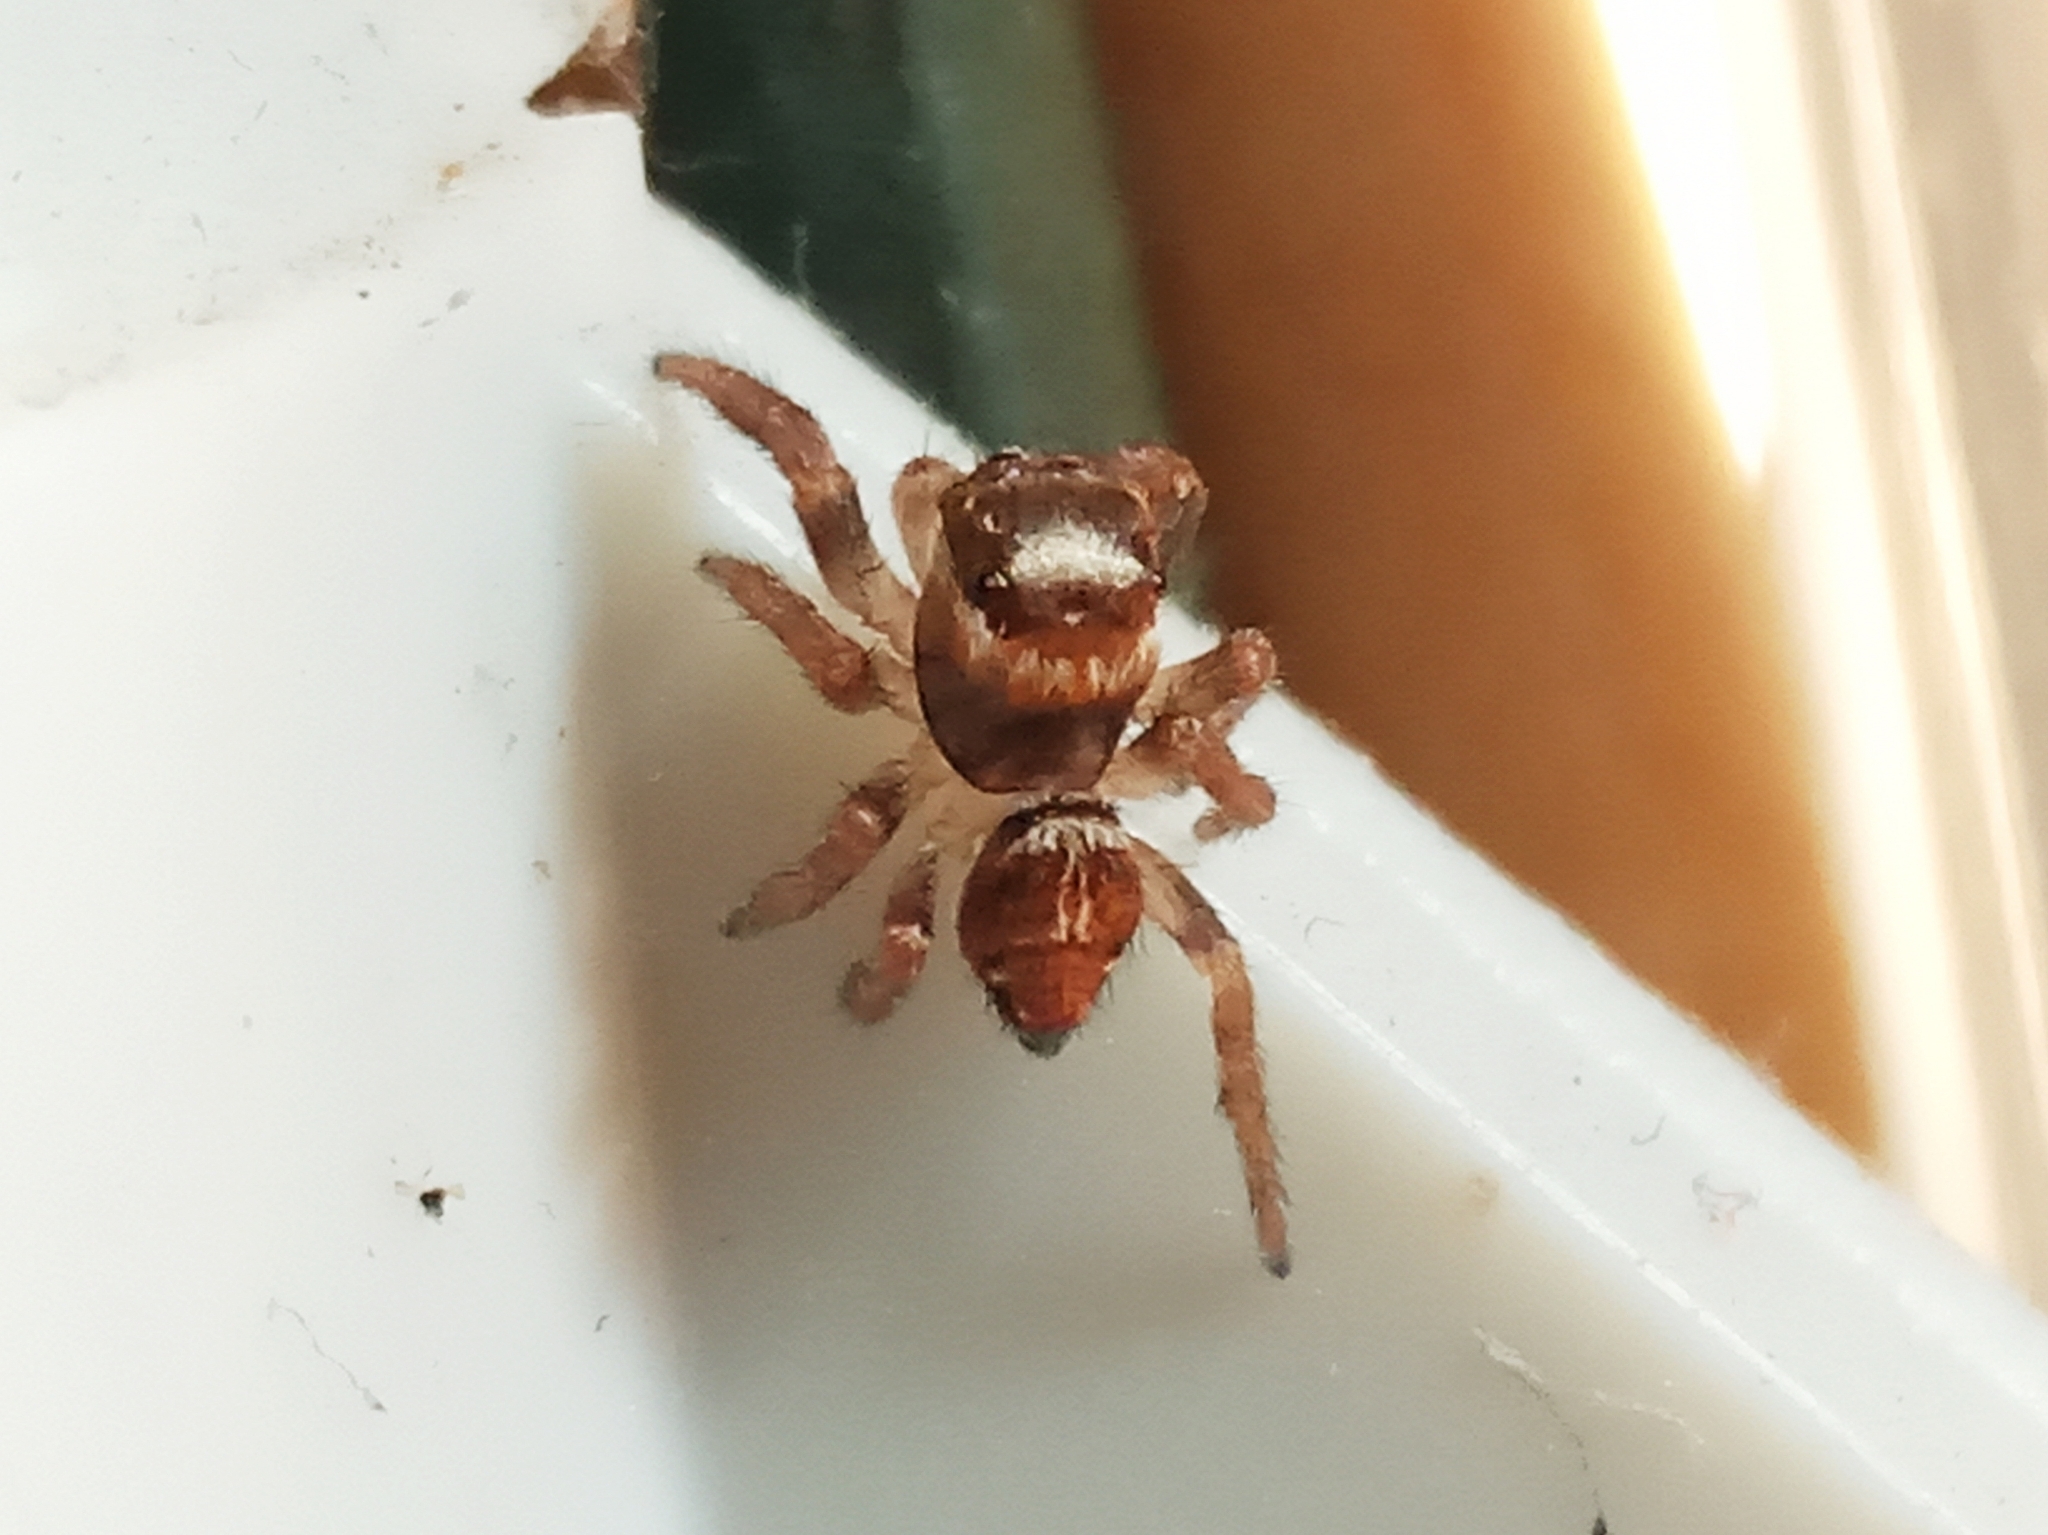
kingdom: Animalia
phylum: Arthropoda
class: Arachnida
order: Araneae
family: Salticidae
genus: Evarcha
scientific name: Evarcha
